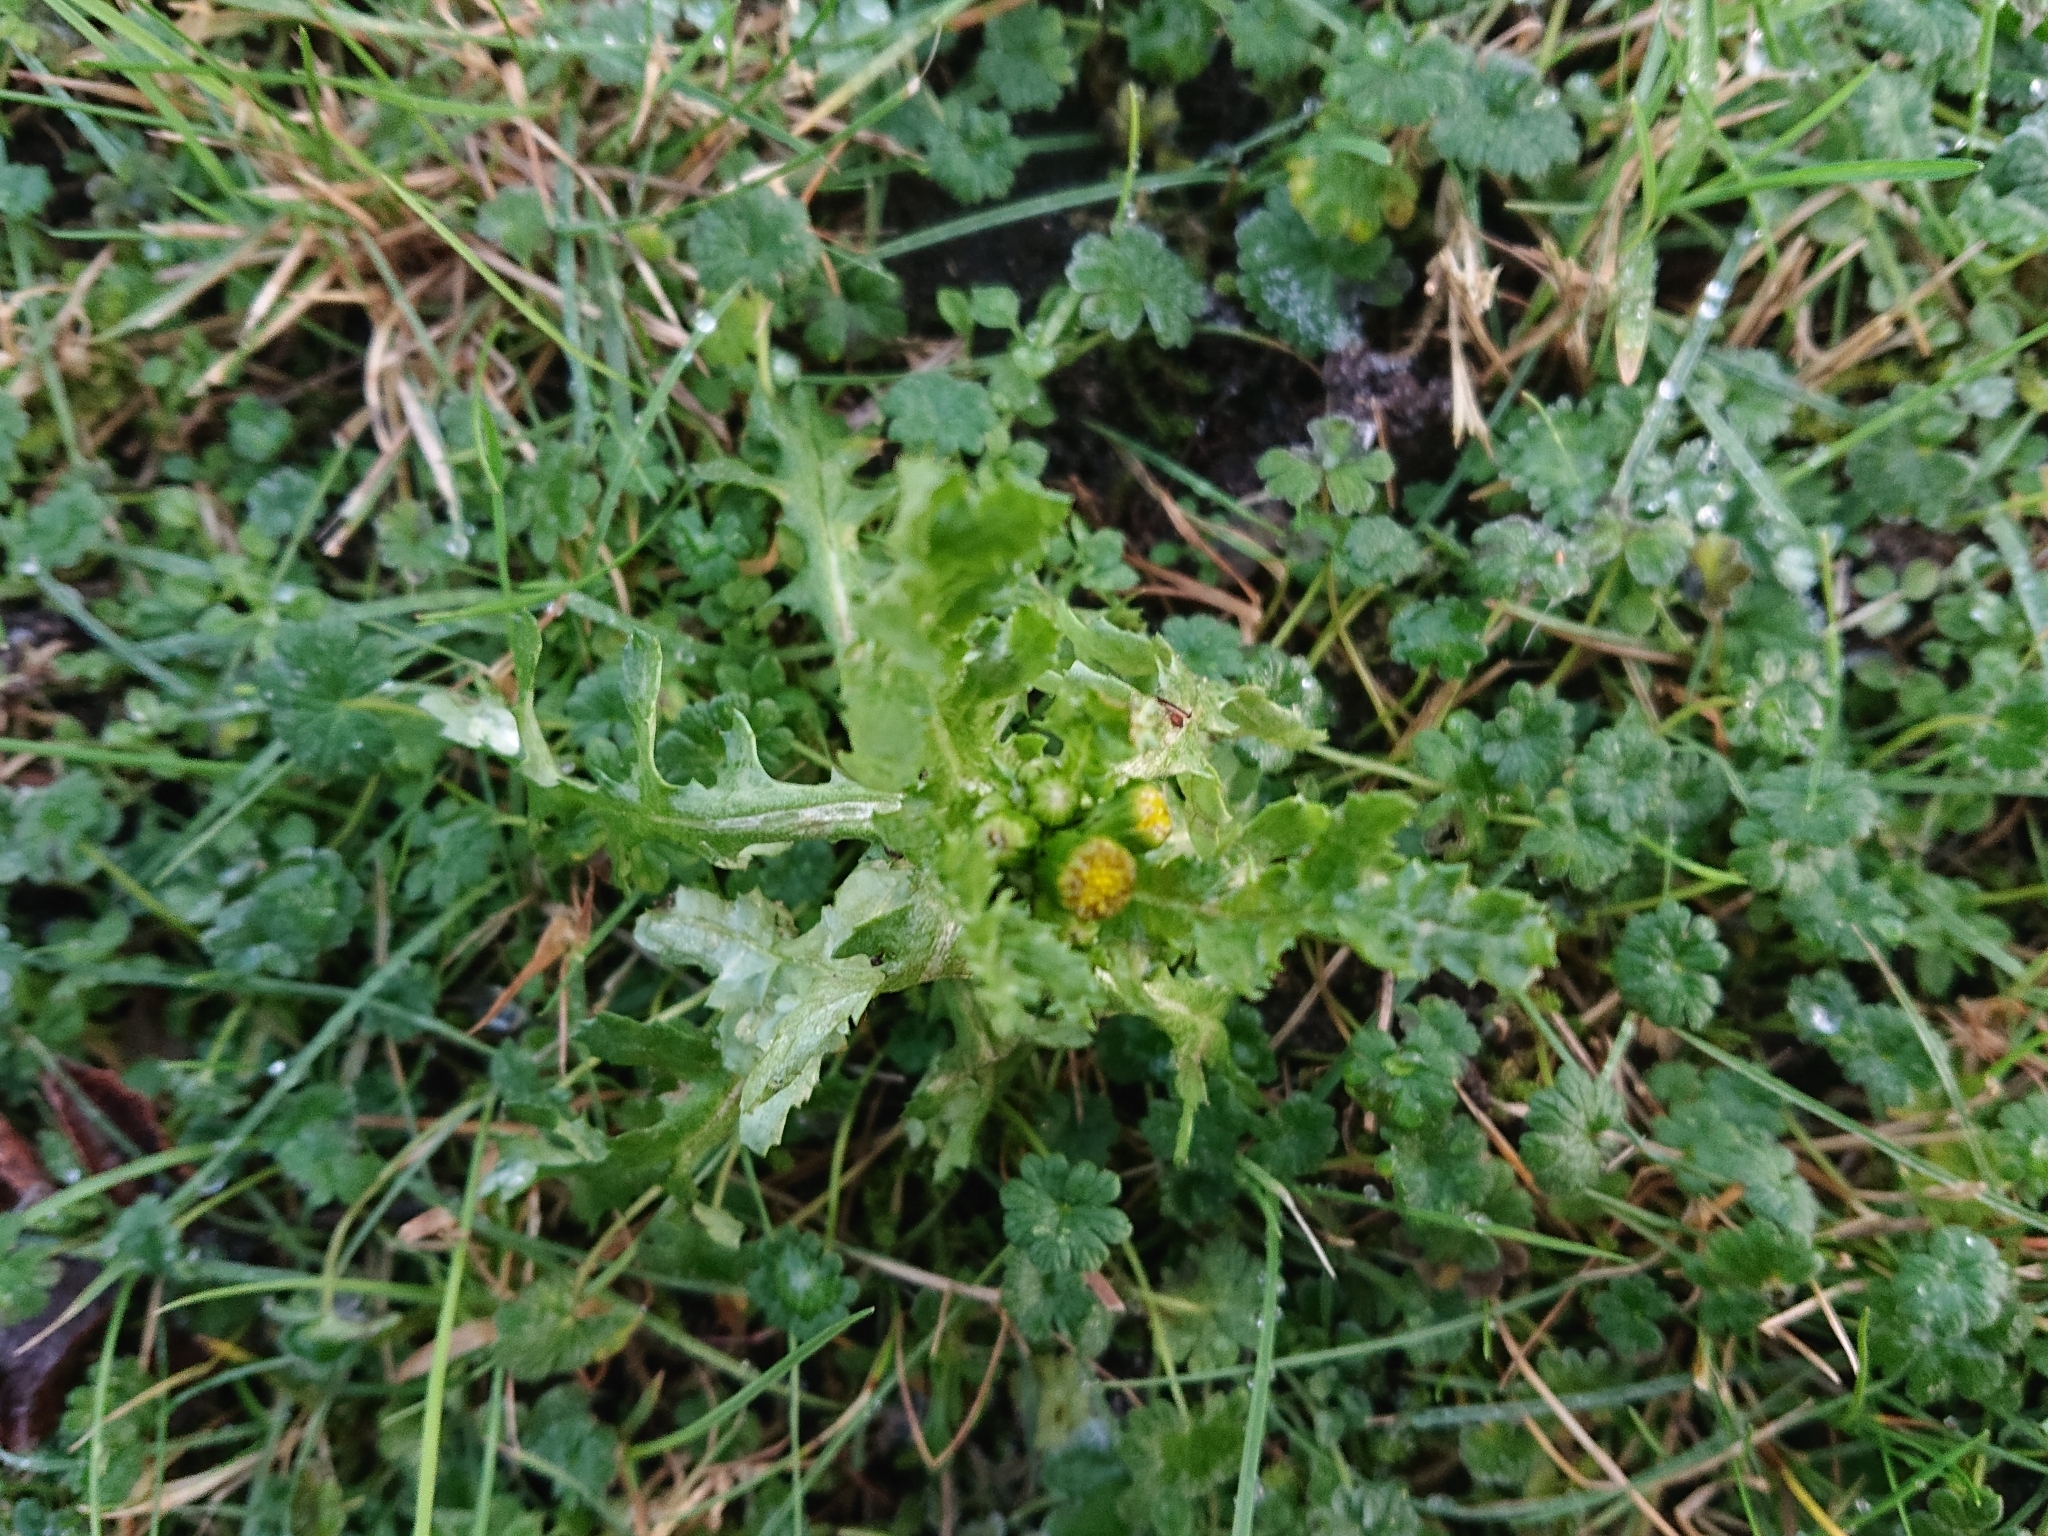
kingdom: Plantae
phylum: Tracheophyta
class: Magnoliopsida
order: Asterales
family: Asteraceae
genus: Senecio
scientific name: Senecio vulgaris
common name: Old-man-in-the-spring
